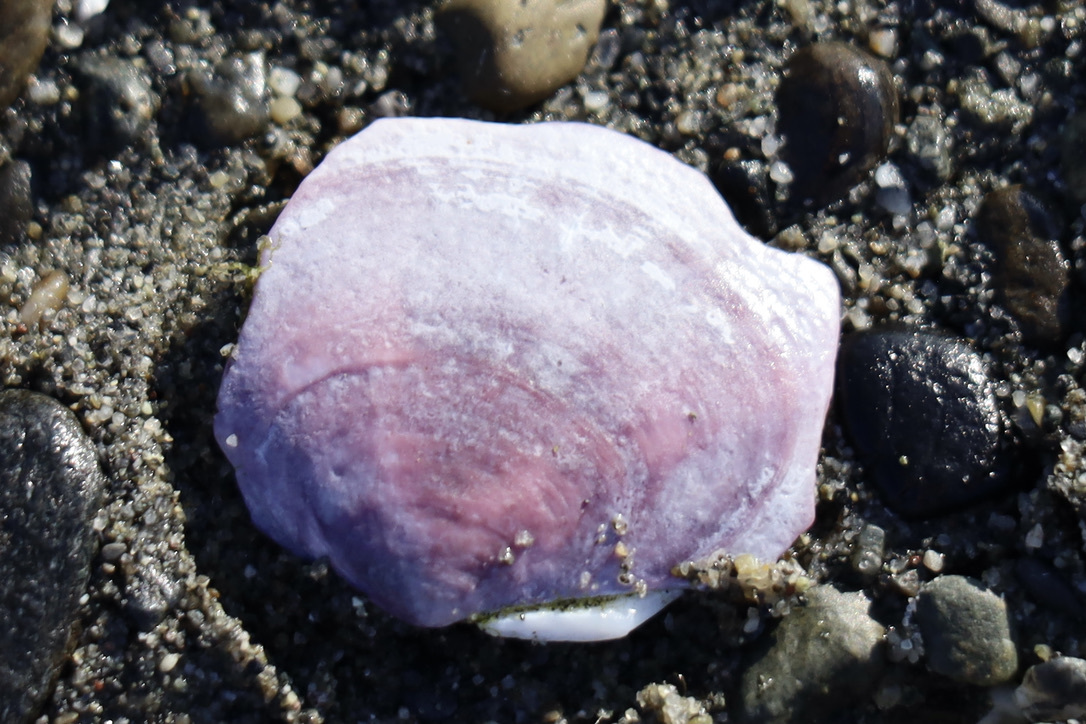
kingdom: Animalia
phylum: Mollusca
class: Bivalvia
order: Cardiida
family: Psammobiidae
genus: Nuttallia
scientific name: Nuttallia obscurata
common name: Purple mahogany-clam
